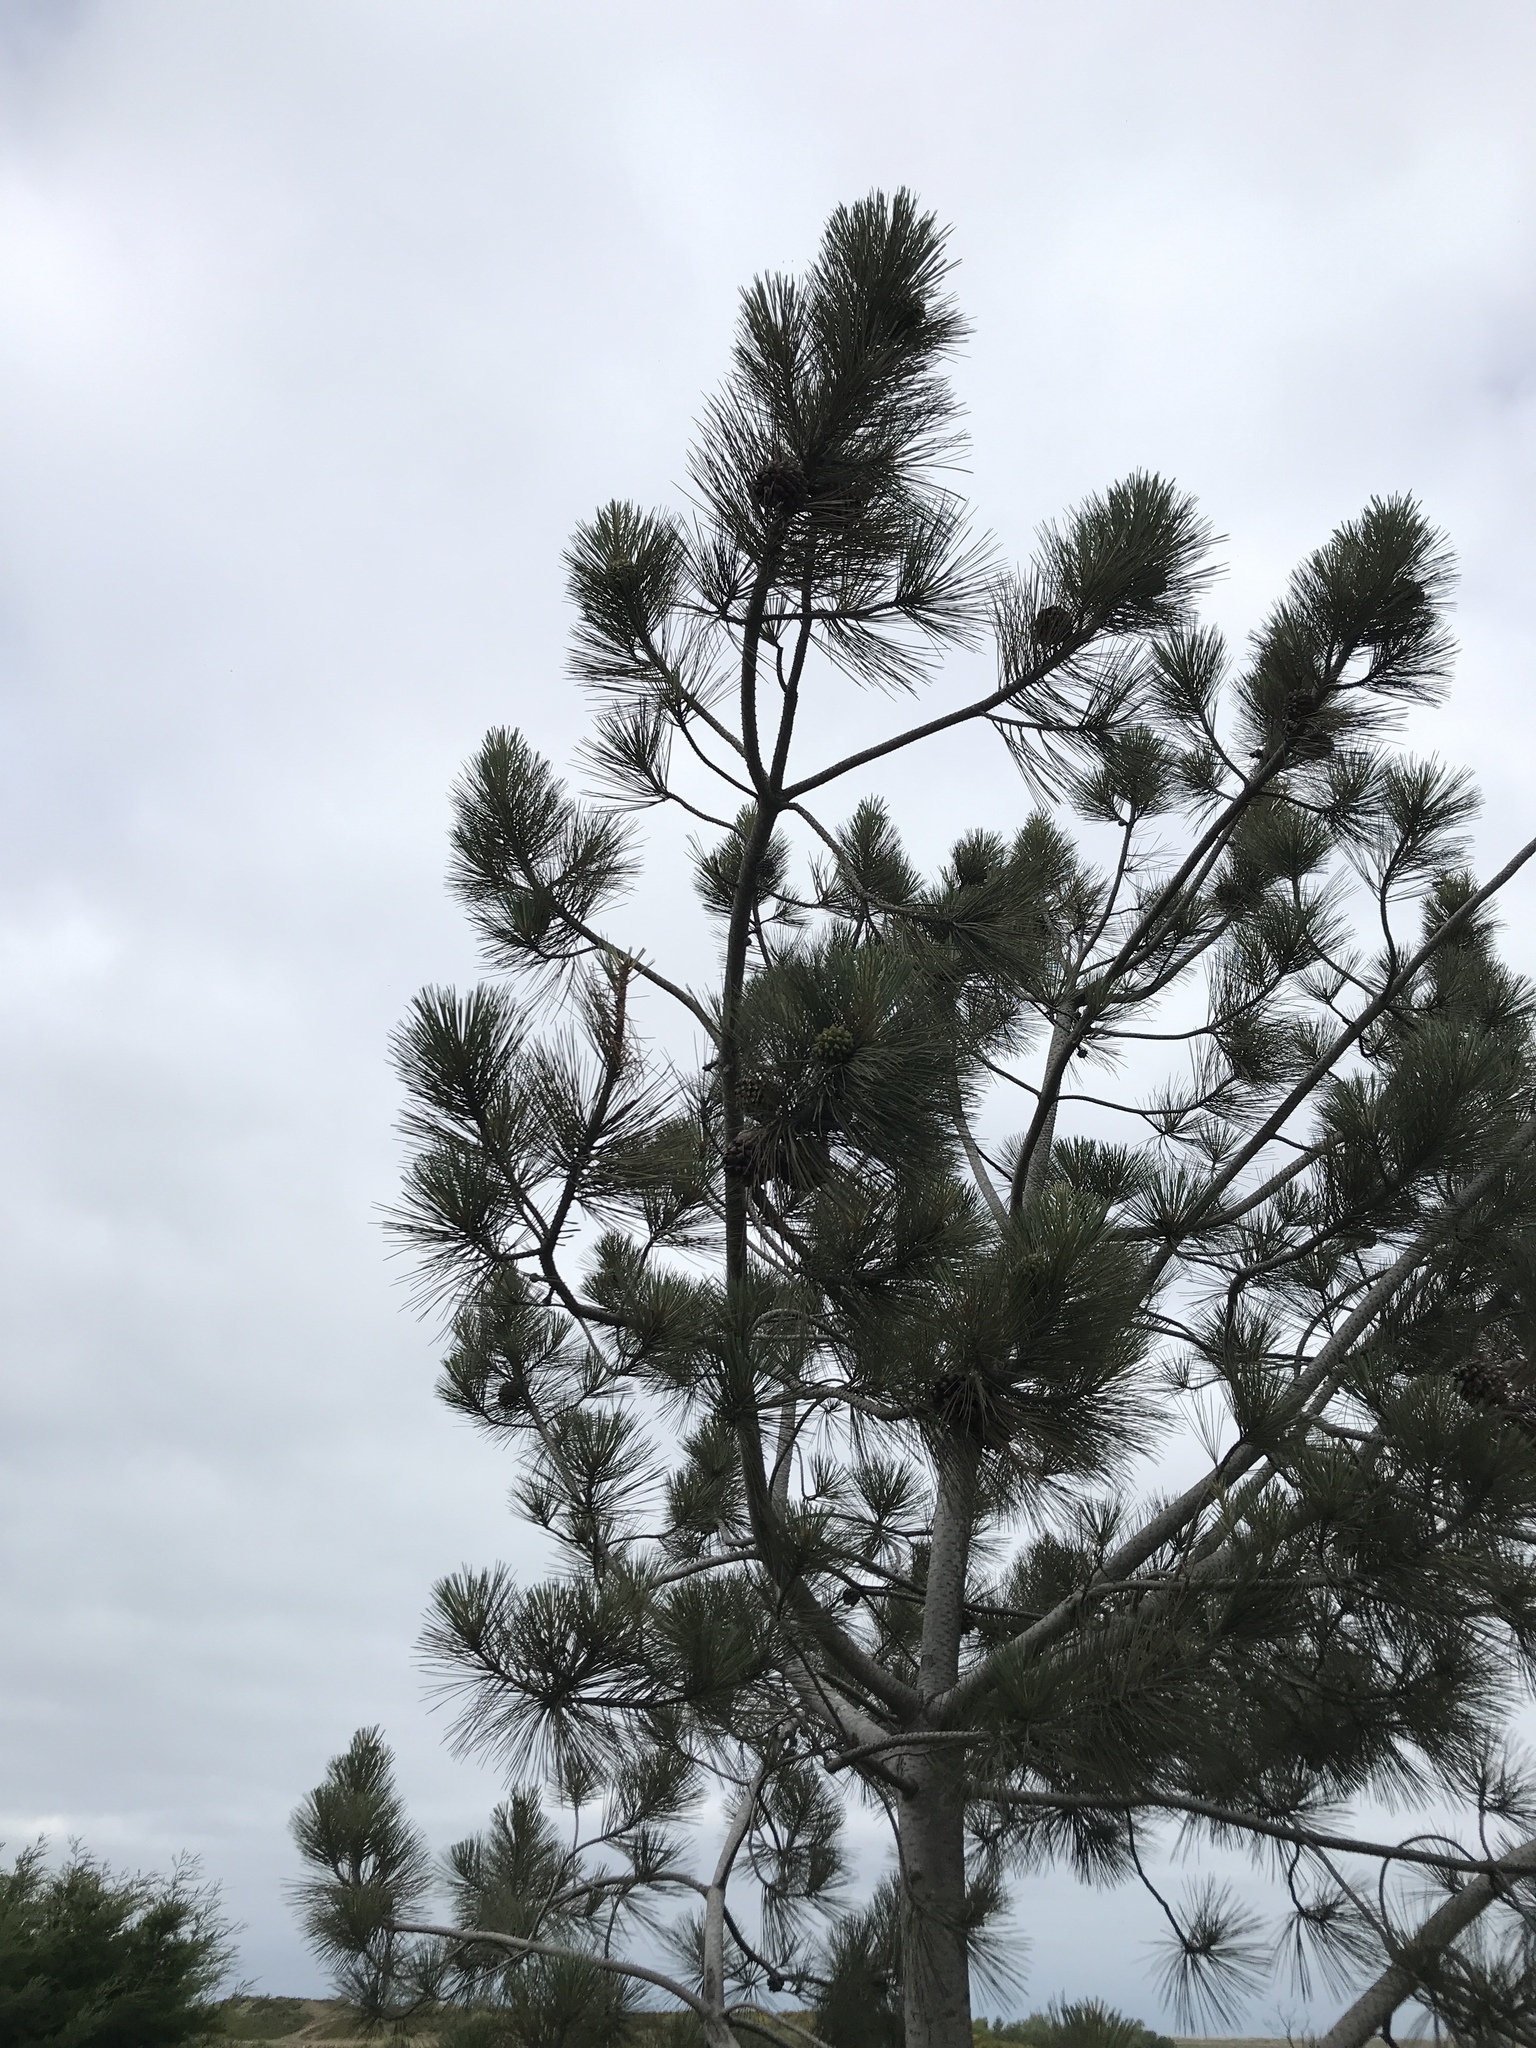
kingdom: Plantae
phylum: Tracheophyta
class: Pinopsida
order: Pinales
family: Pinaceae
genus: Pinus
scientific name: Pinus torreyana
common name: Torrey pine
